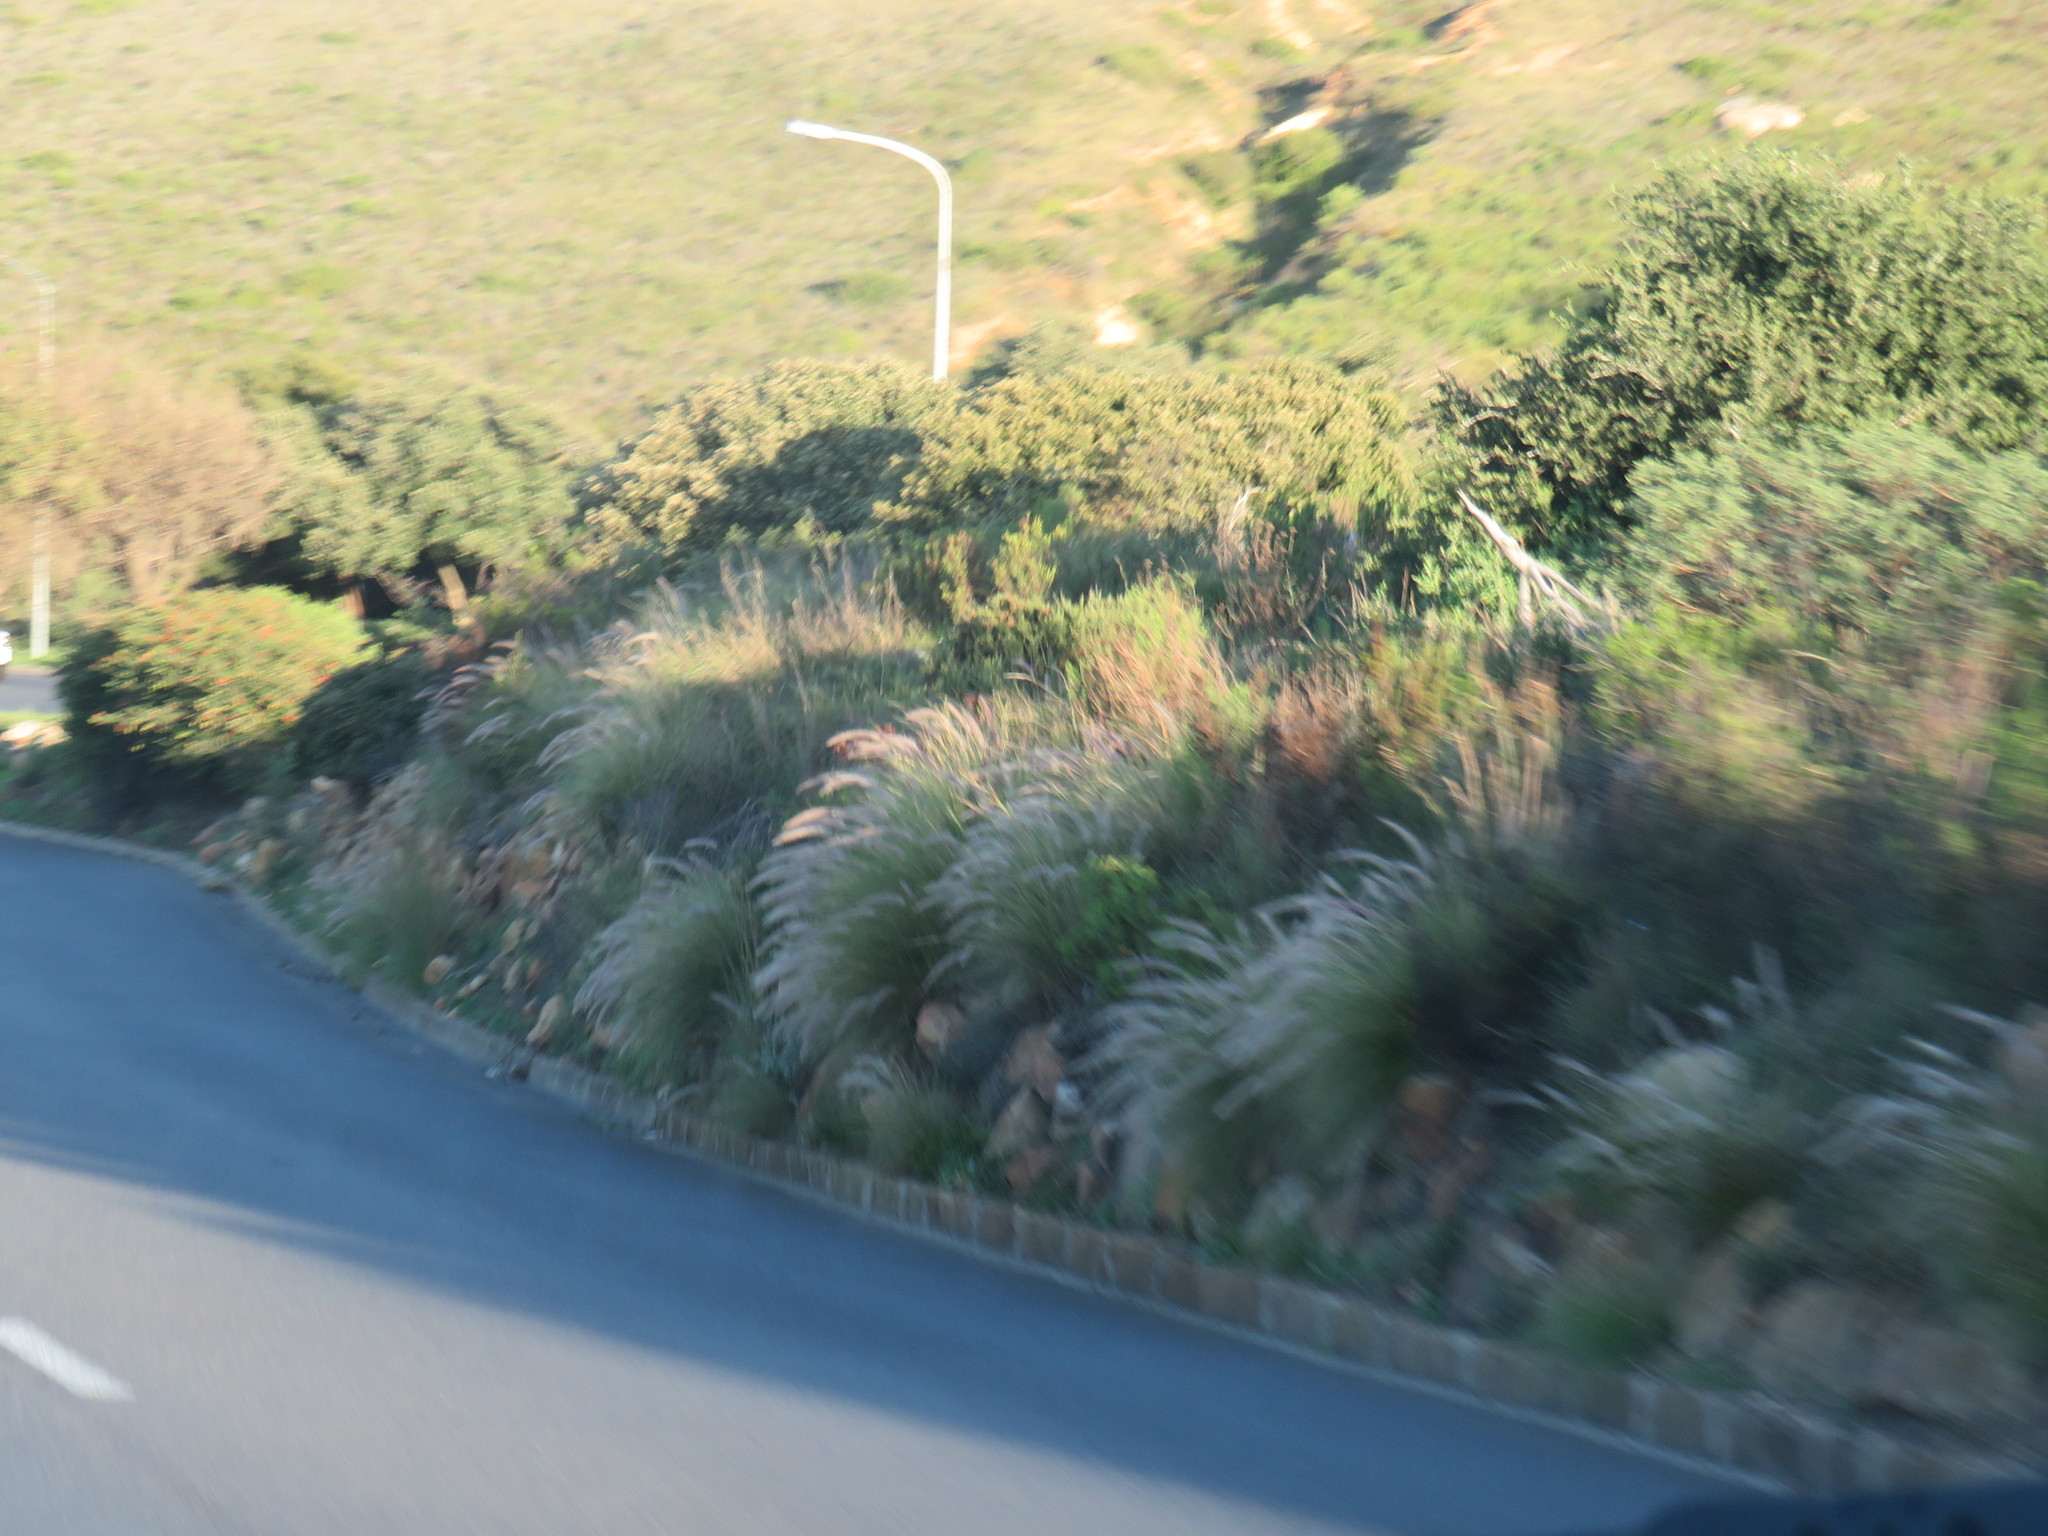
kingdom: Plantae
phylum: Tracheophyta
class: Liliopsida
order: Poales
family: Poaceae
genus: Cenchrus
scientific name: Cenchrus setaceus
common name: Crimson fountaingrass
